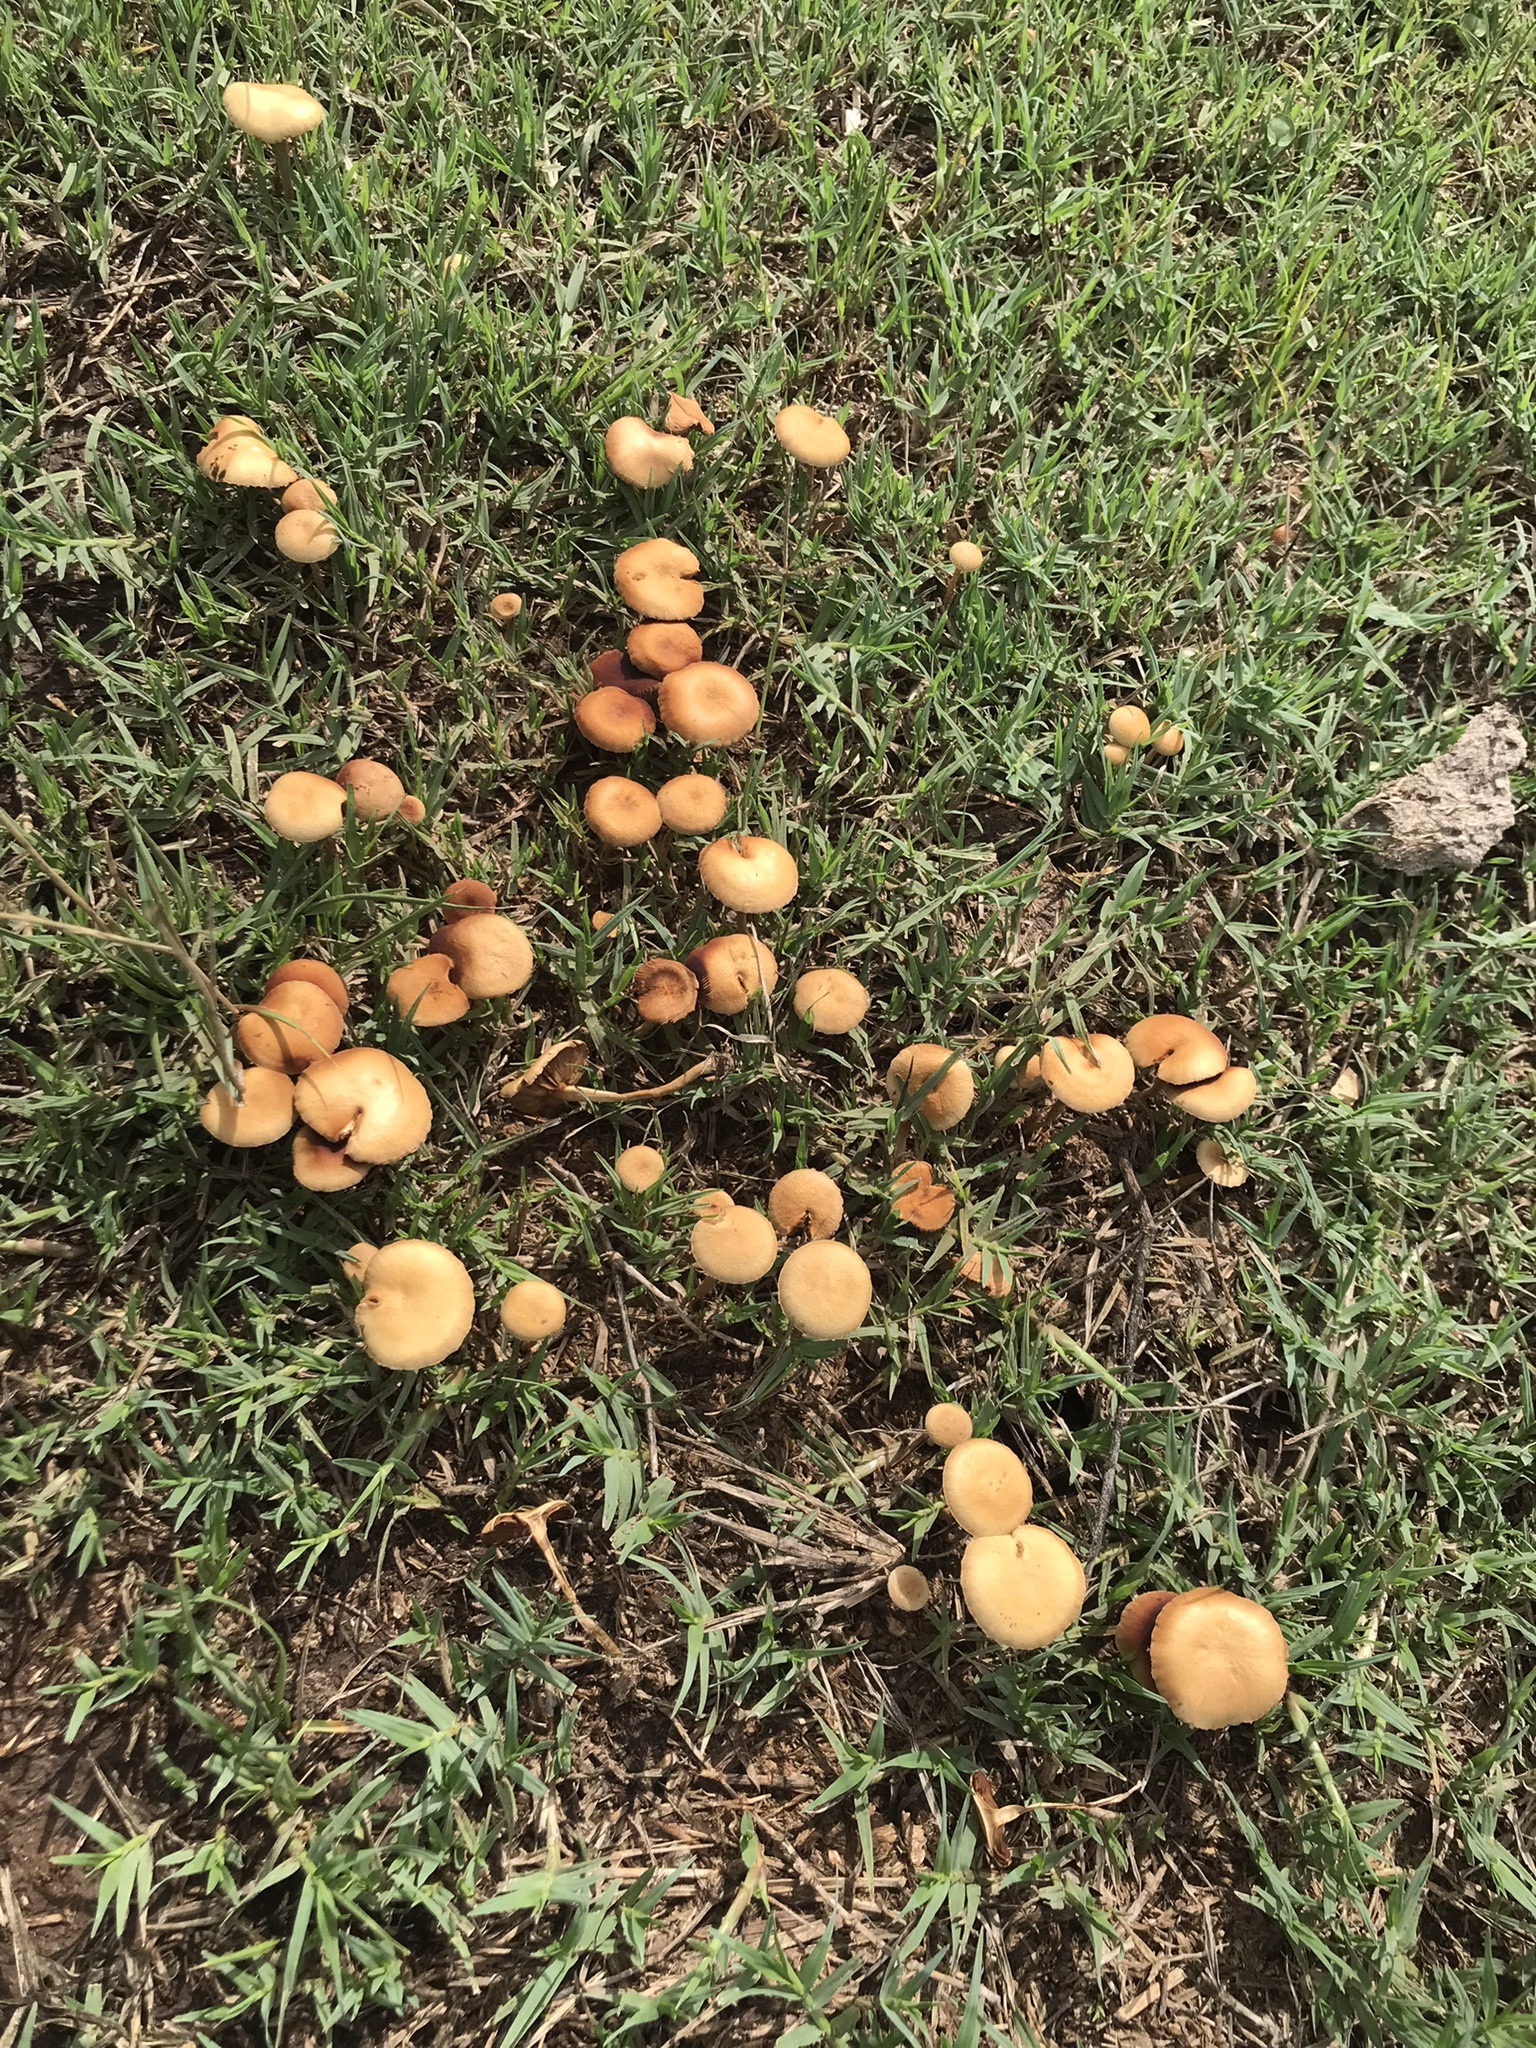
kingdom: Fungi
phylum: Basidiomycota
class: Agaricomycetes
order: Agaricales
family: Strophariaceae
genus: Agrocybe
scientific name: Agrocybe pediades
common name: Common fieldcap
